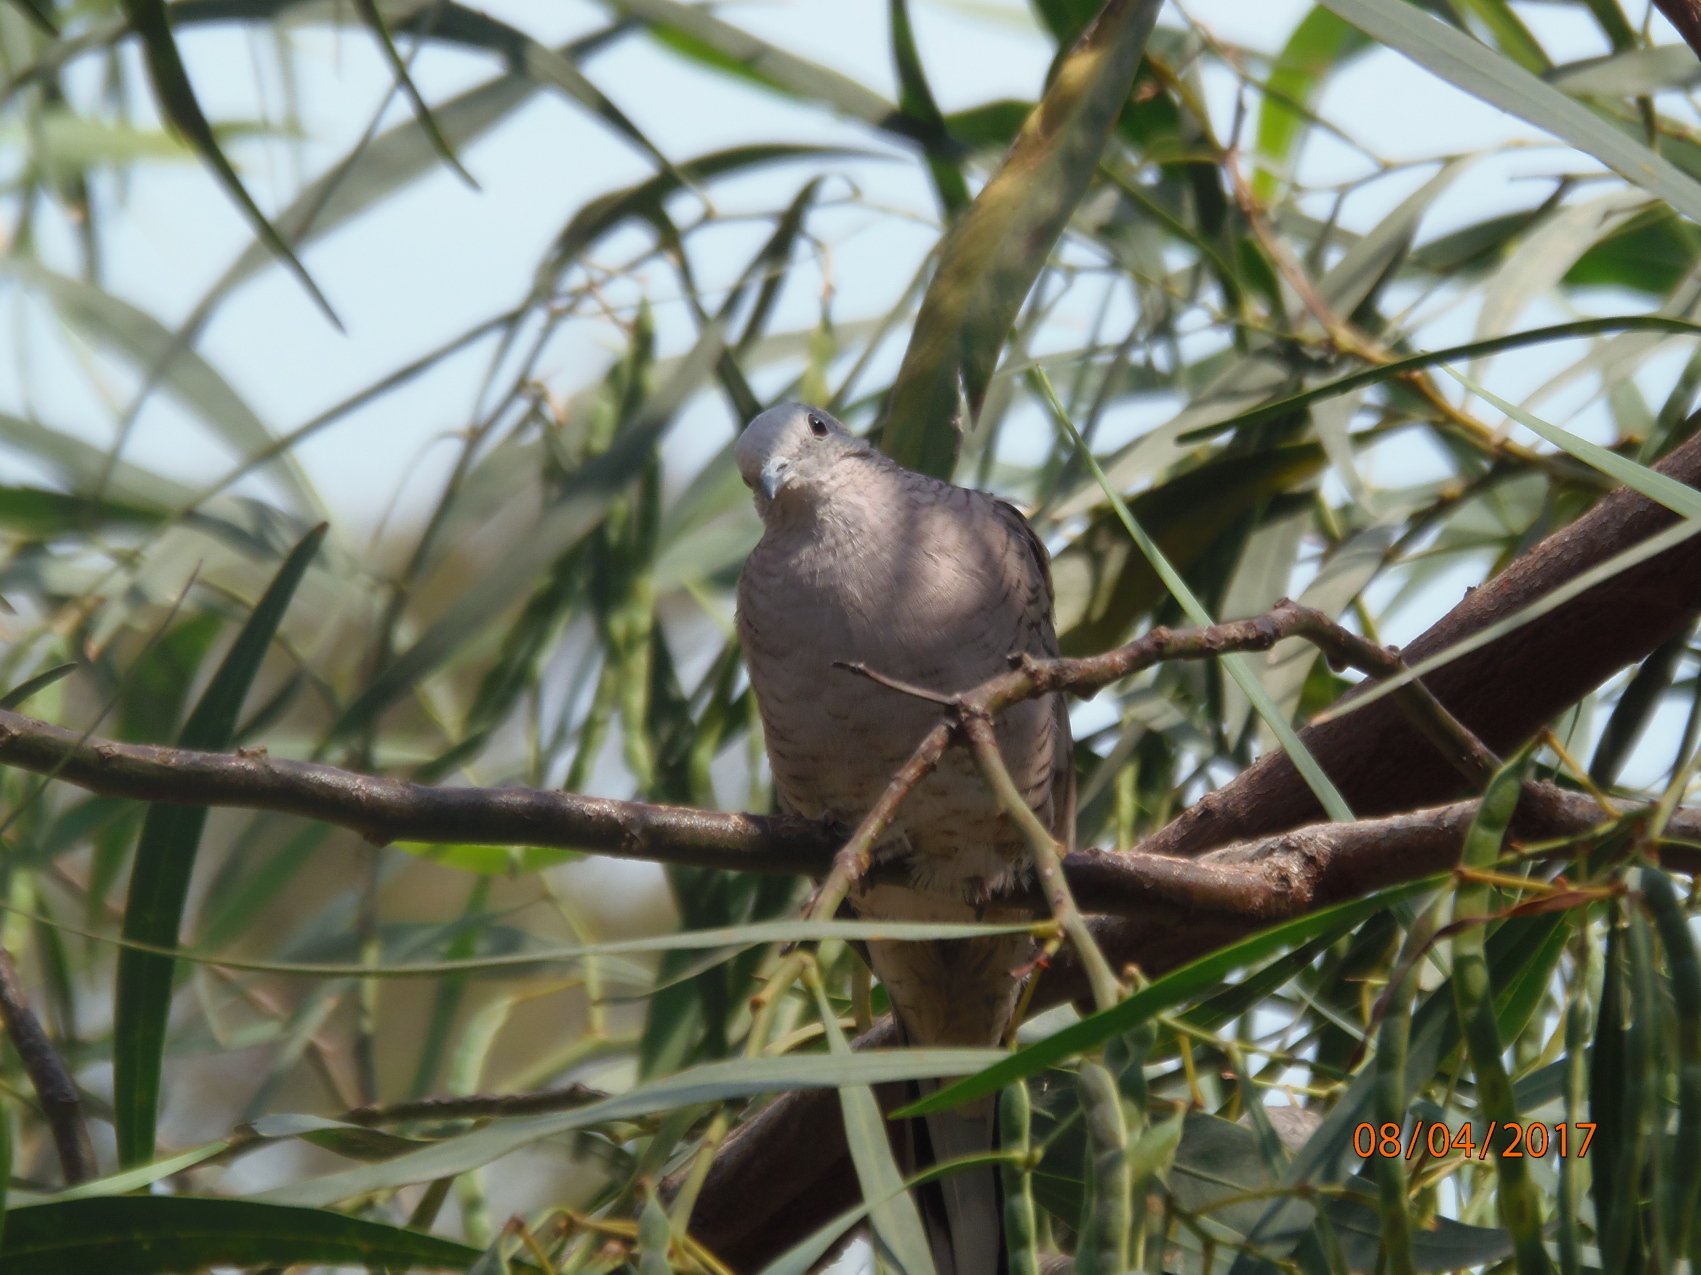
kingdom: Animalia
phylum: Chordata
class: Aves
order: Columbiformes
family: Columbidae
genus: Columbina
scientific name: Columbina inca
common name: Inca dove
